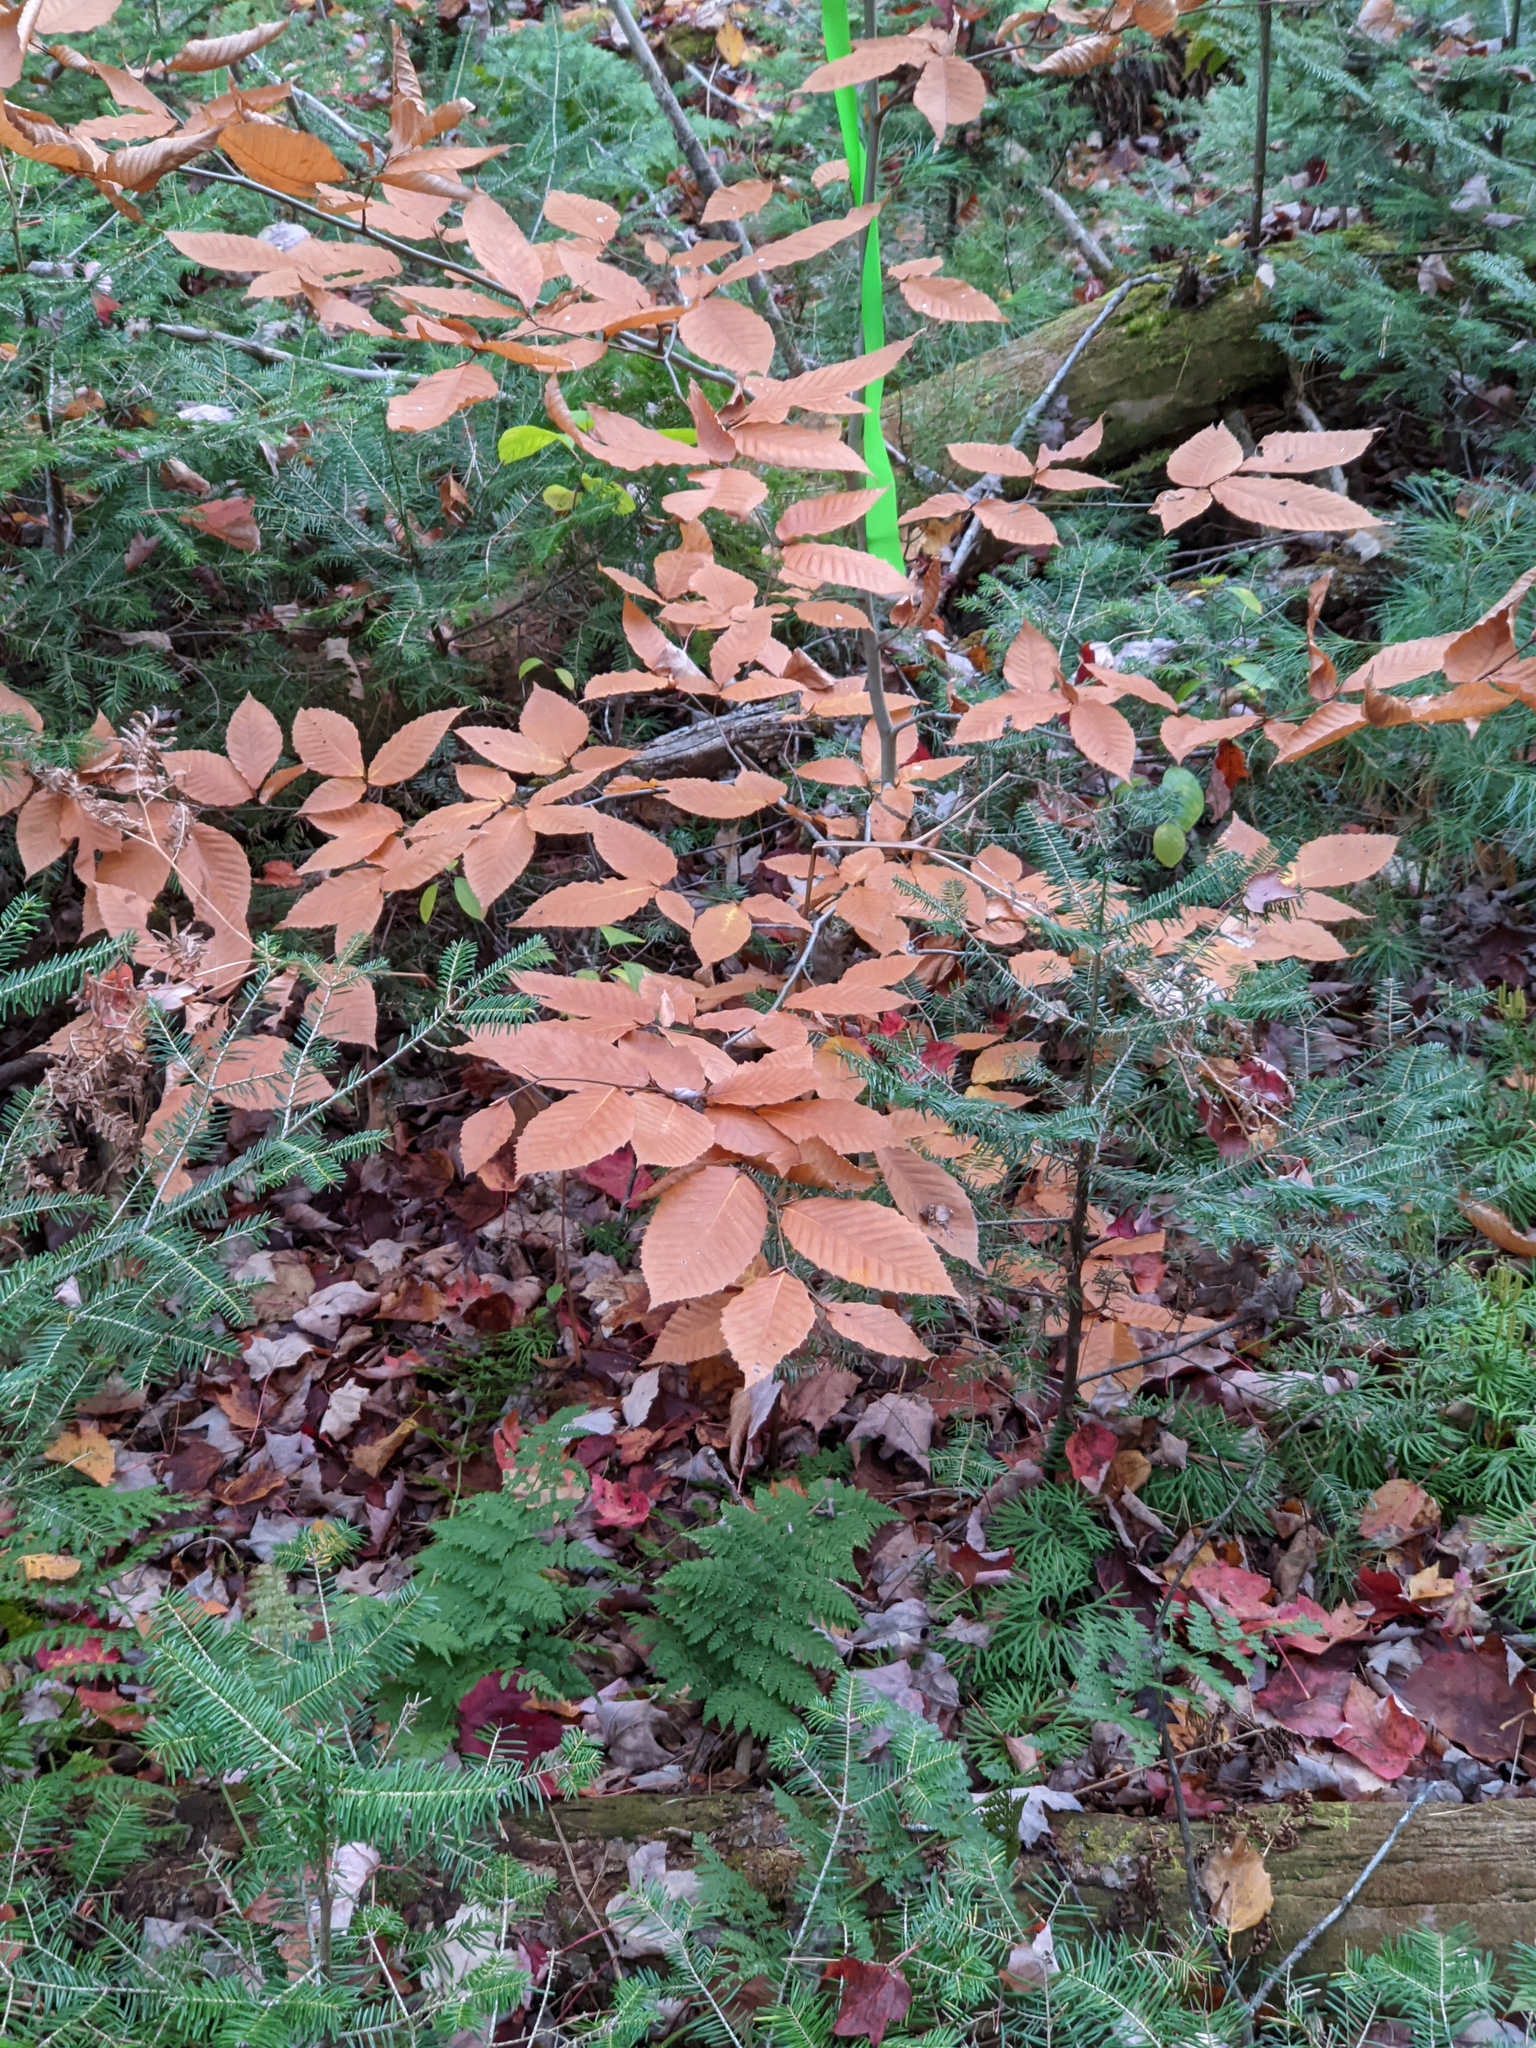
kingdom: Plantae
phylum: Tracheophyta
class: Magnoliopsida
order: Fagales
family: Fagaceae
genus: Fagus
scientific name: Fagus grandifolia
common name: American beech
